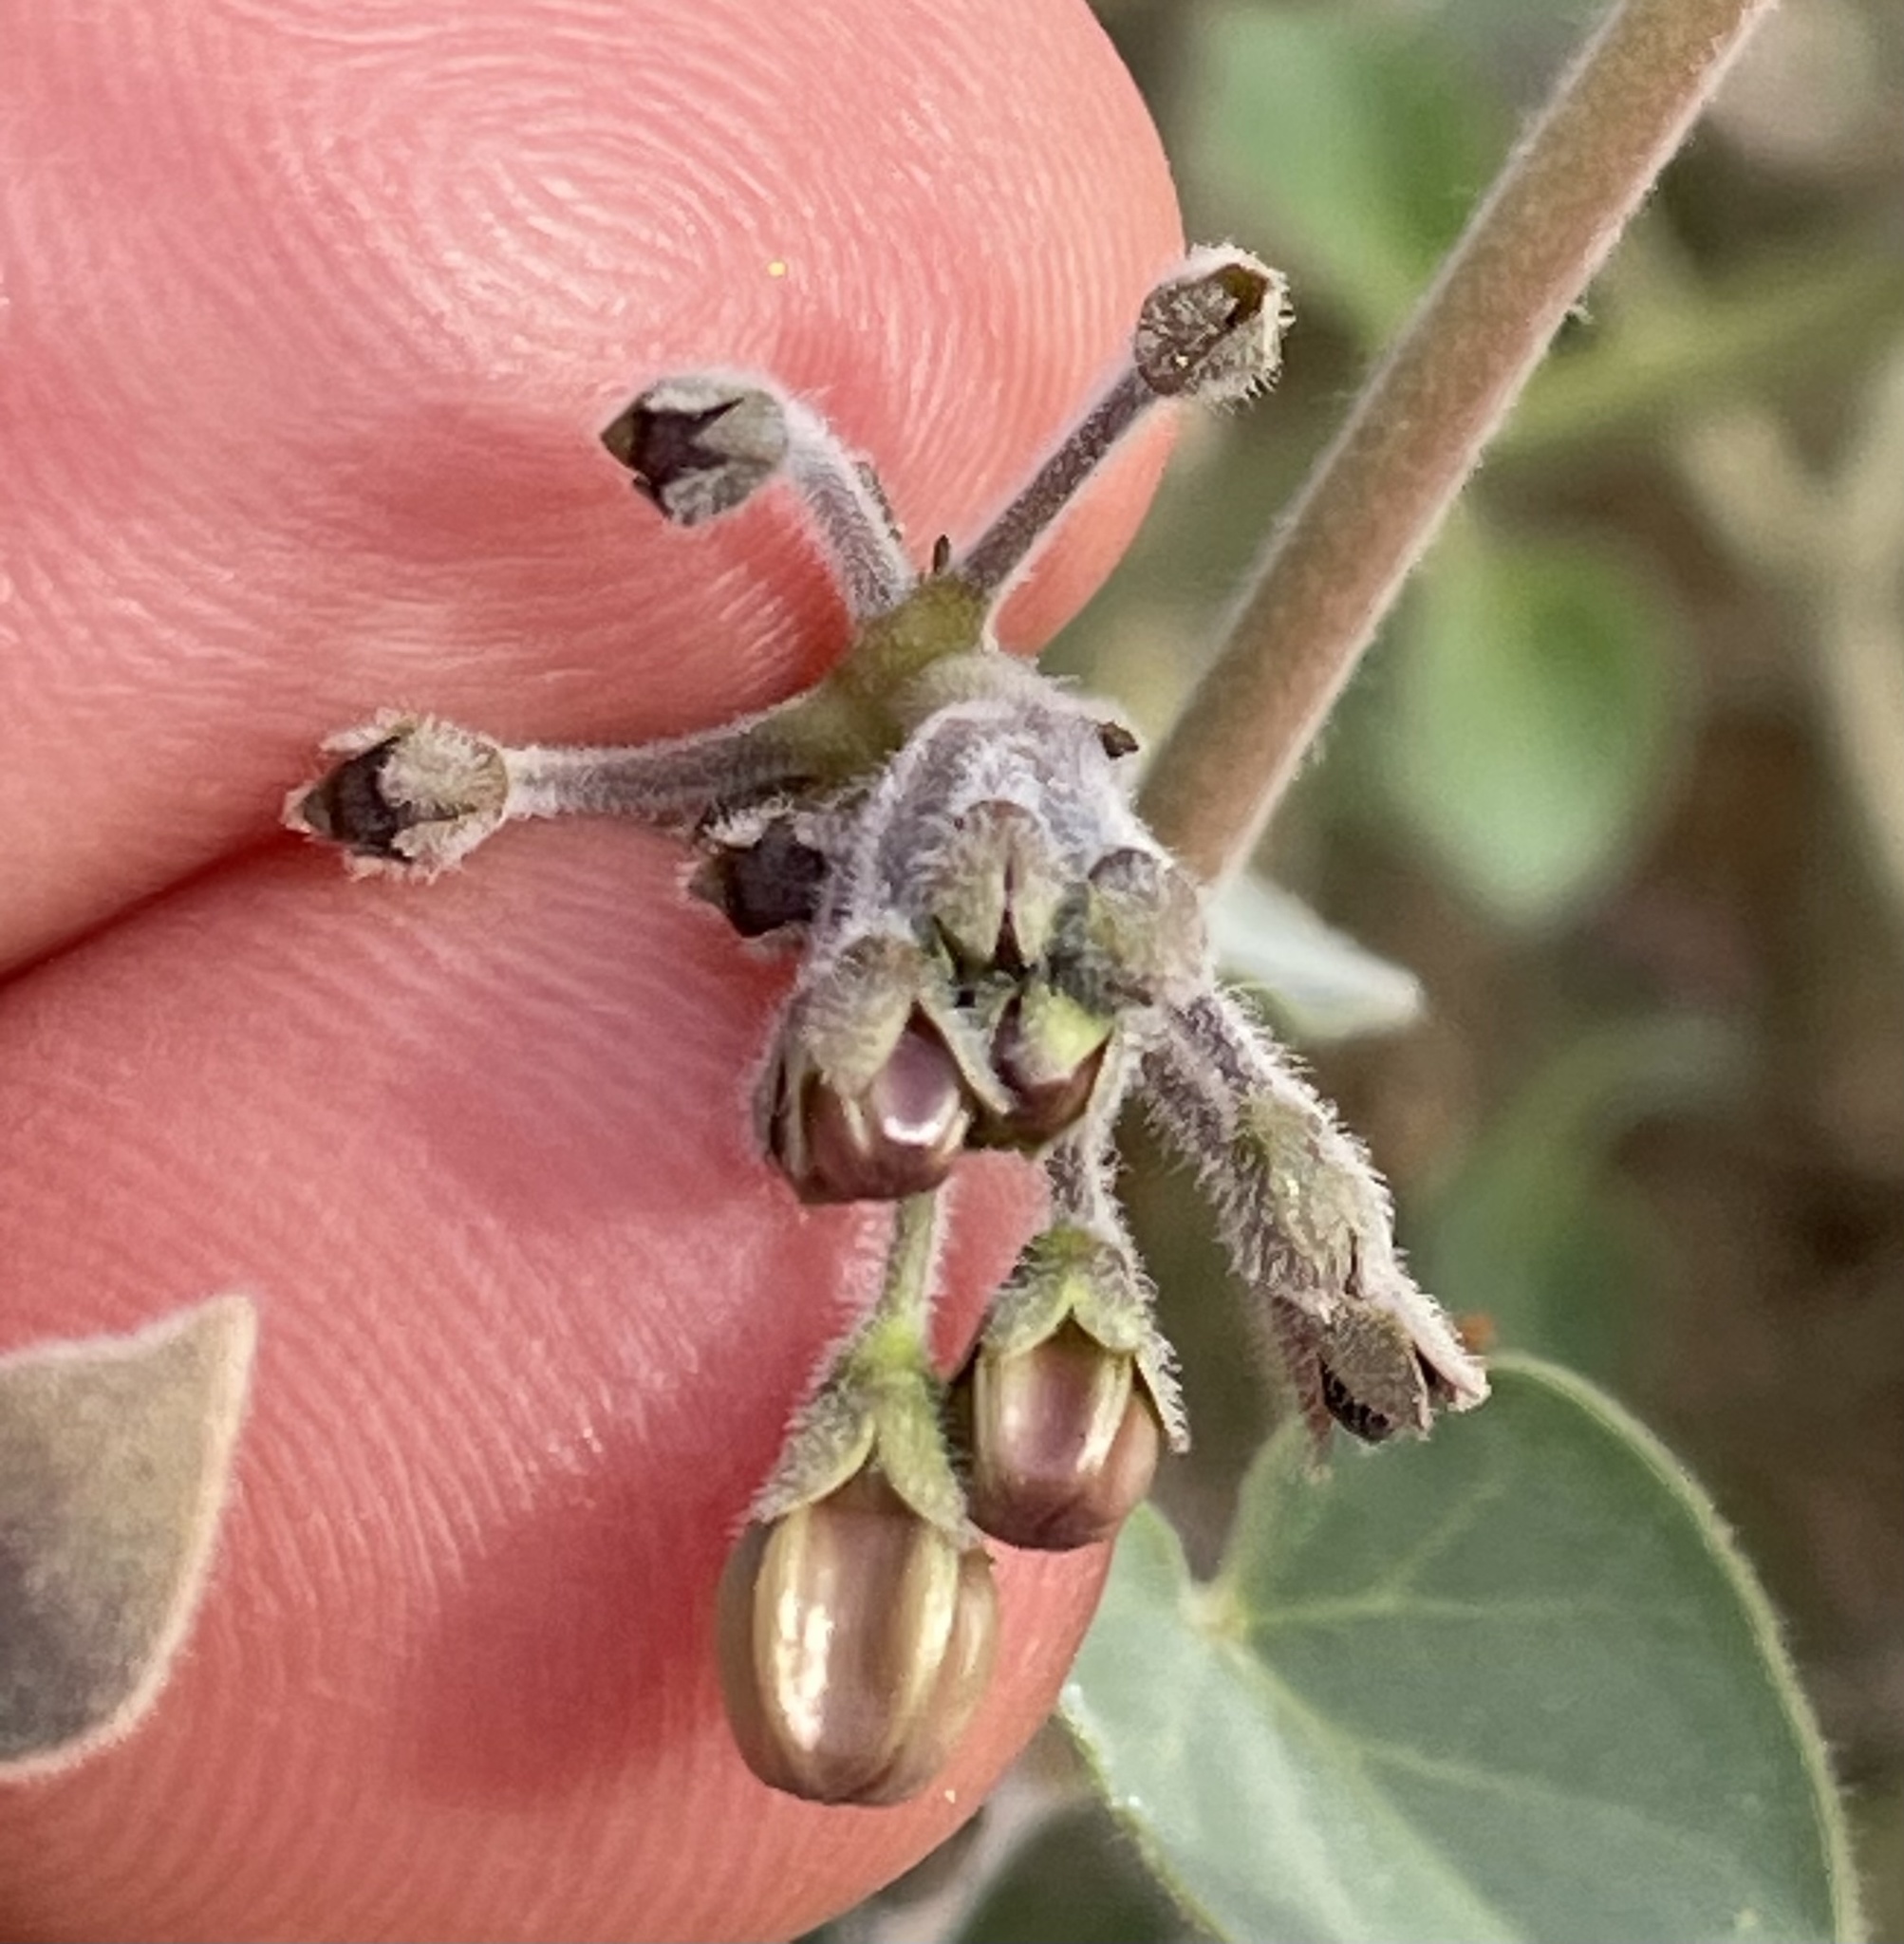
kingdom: Plantae
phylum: Tracheophyta
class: Magnoliopsida
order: Gentianales
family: Apocynaceae
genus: Pergularia
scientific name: Pergularia tomentosa
